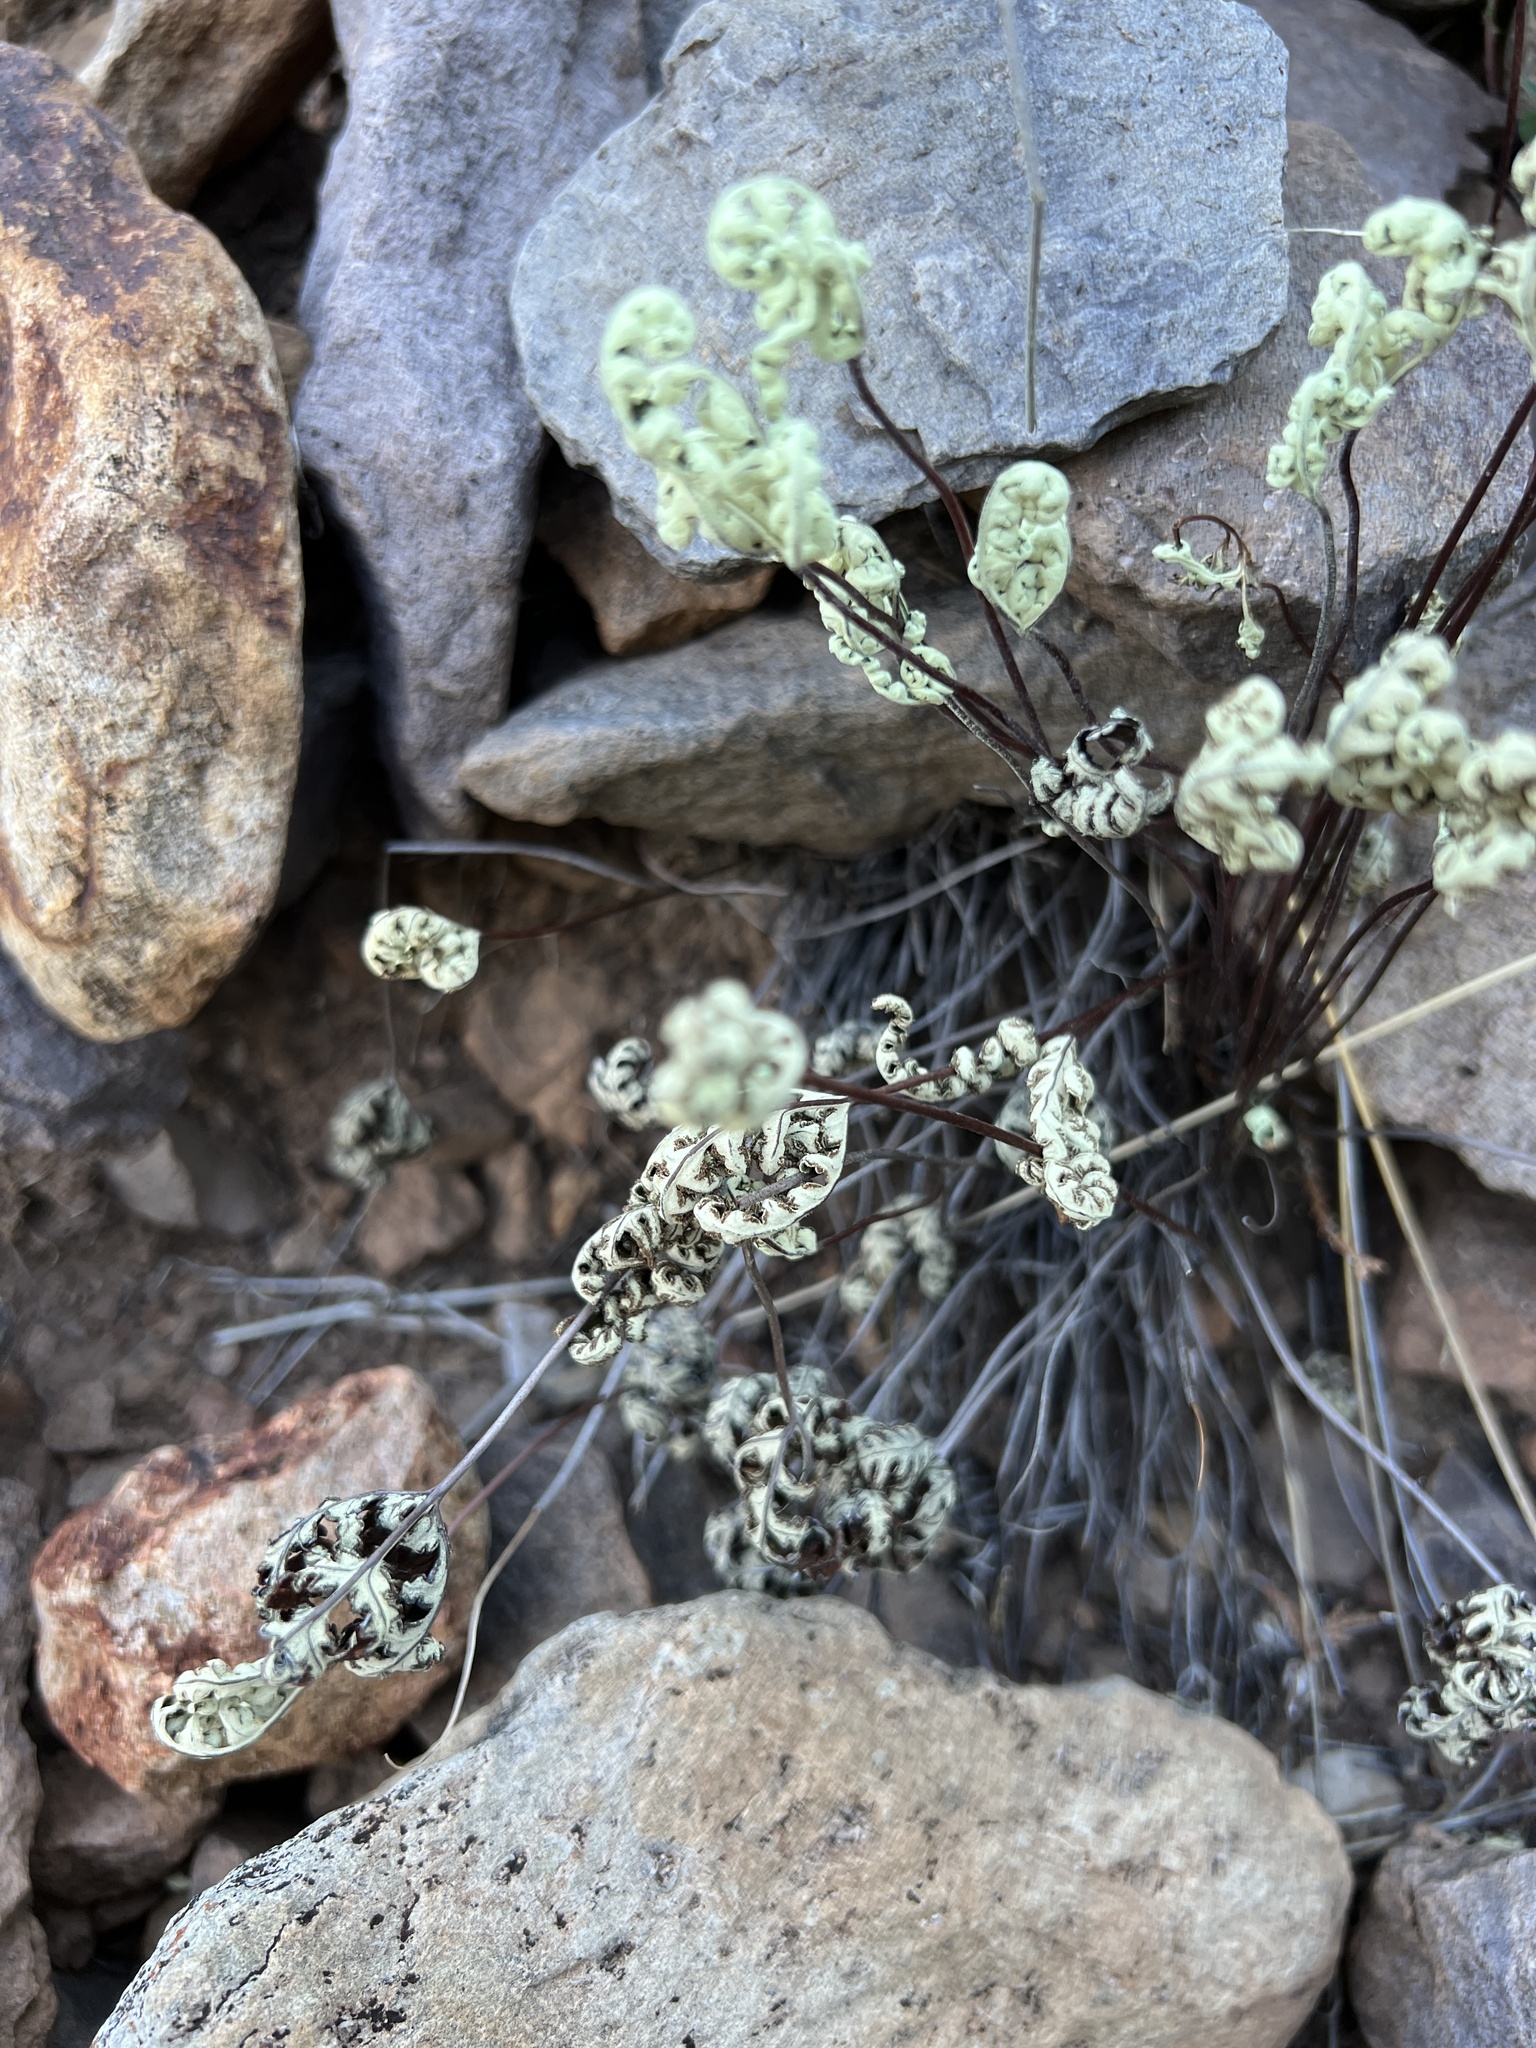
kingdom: Plantae
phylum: Tracheophyta
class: Polypodiopsida
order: Polypodiales
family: Pteridaceae
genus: Notholaena
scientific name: Notholaena standleyi
